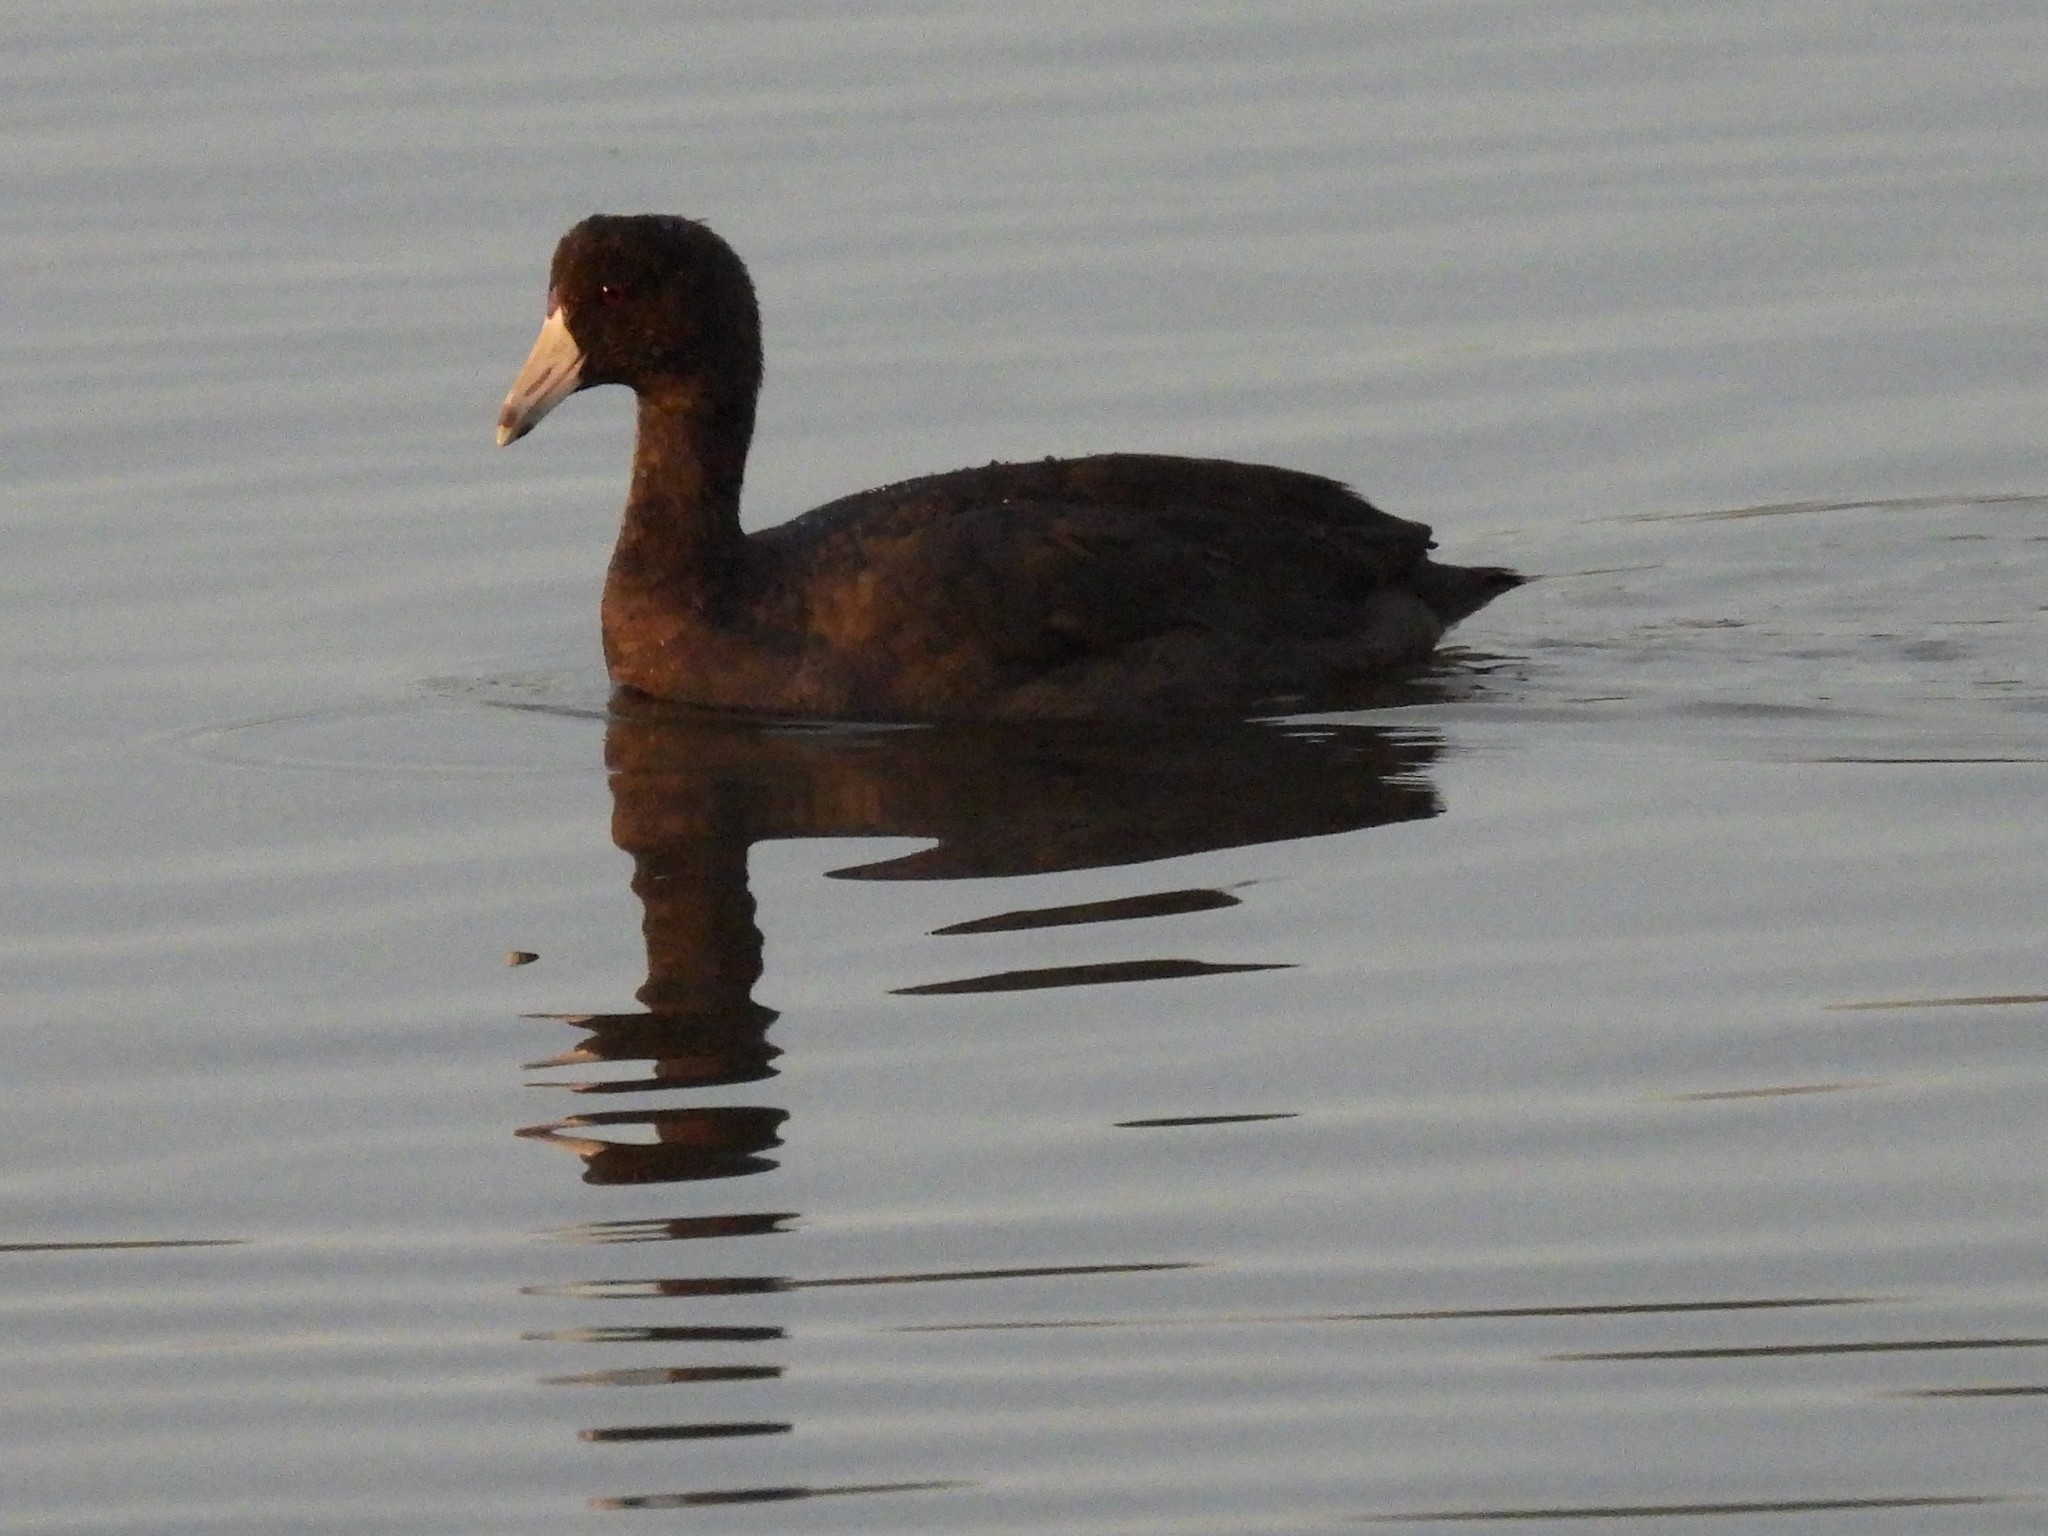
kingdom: Animalia
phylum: Chordata
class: Aves
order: Gruiformes
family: Rallidae
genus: Fulica
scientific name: Fulica americana
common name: American coot
